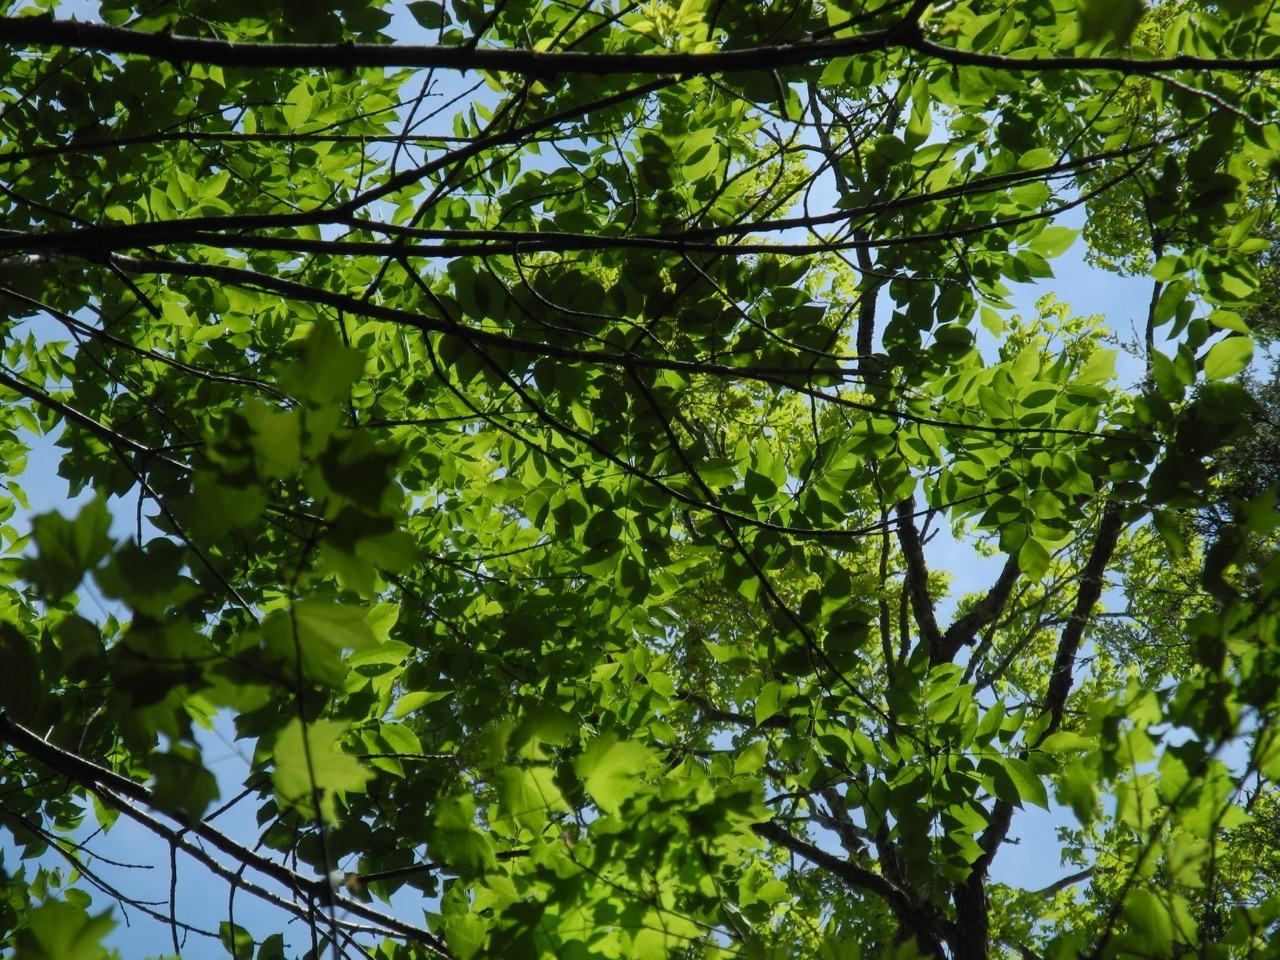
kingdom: Plantae
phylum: Tracheophyta
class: Magnoliopsida
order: Lamiales
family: Oleaceae
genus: Fraxinus
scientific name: Fraxinus pennsylvanica
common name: Green ash
